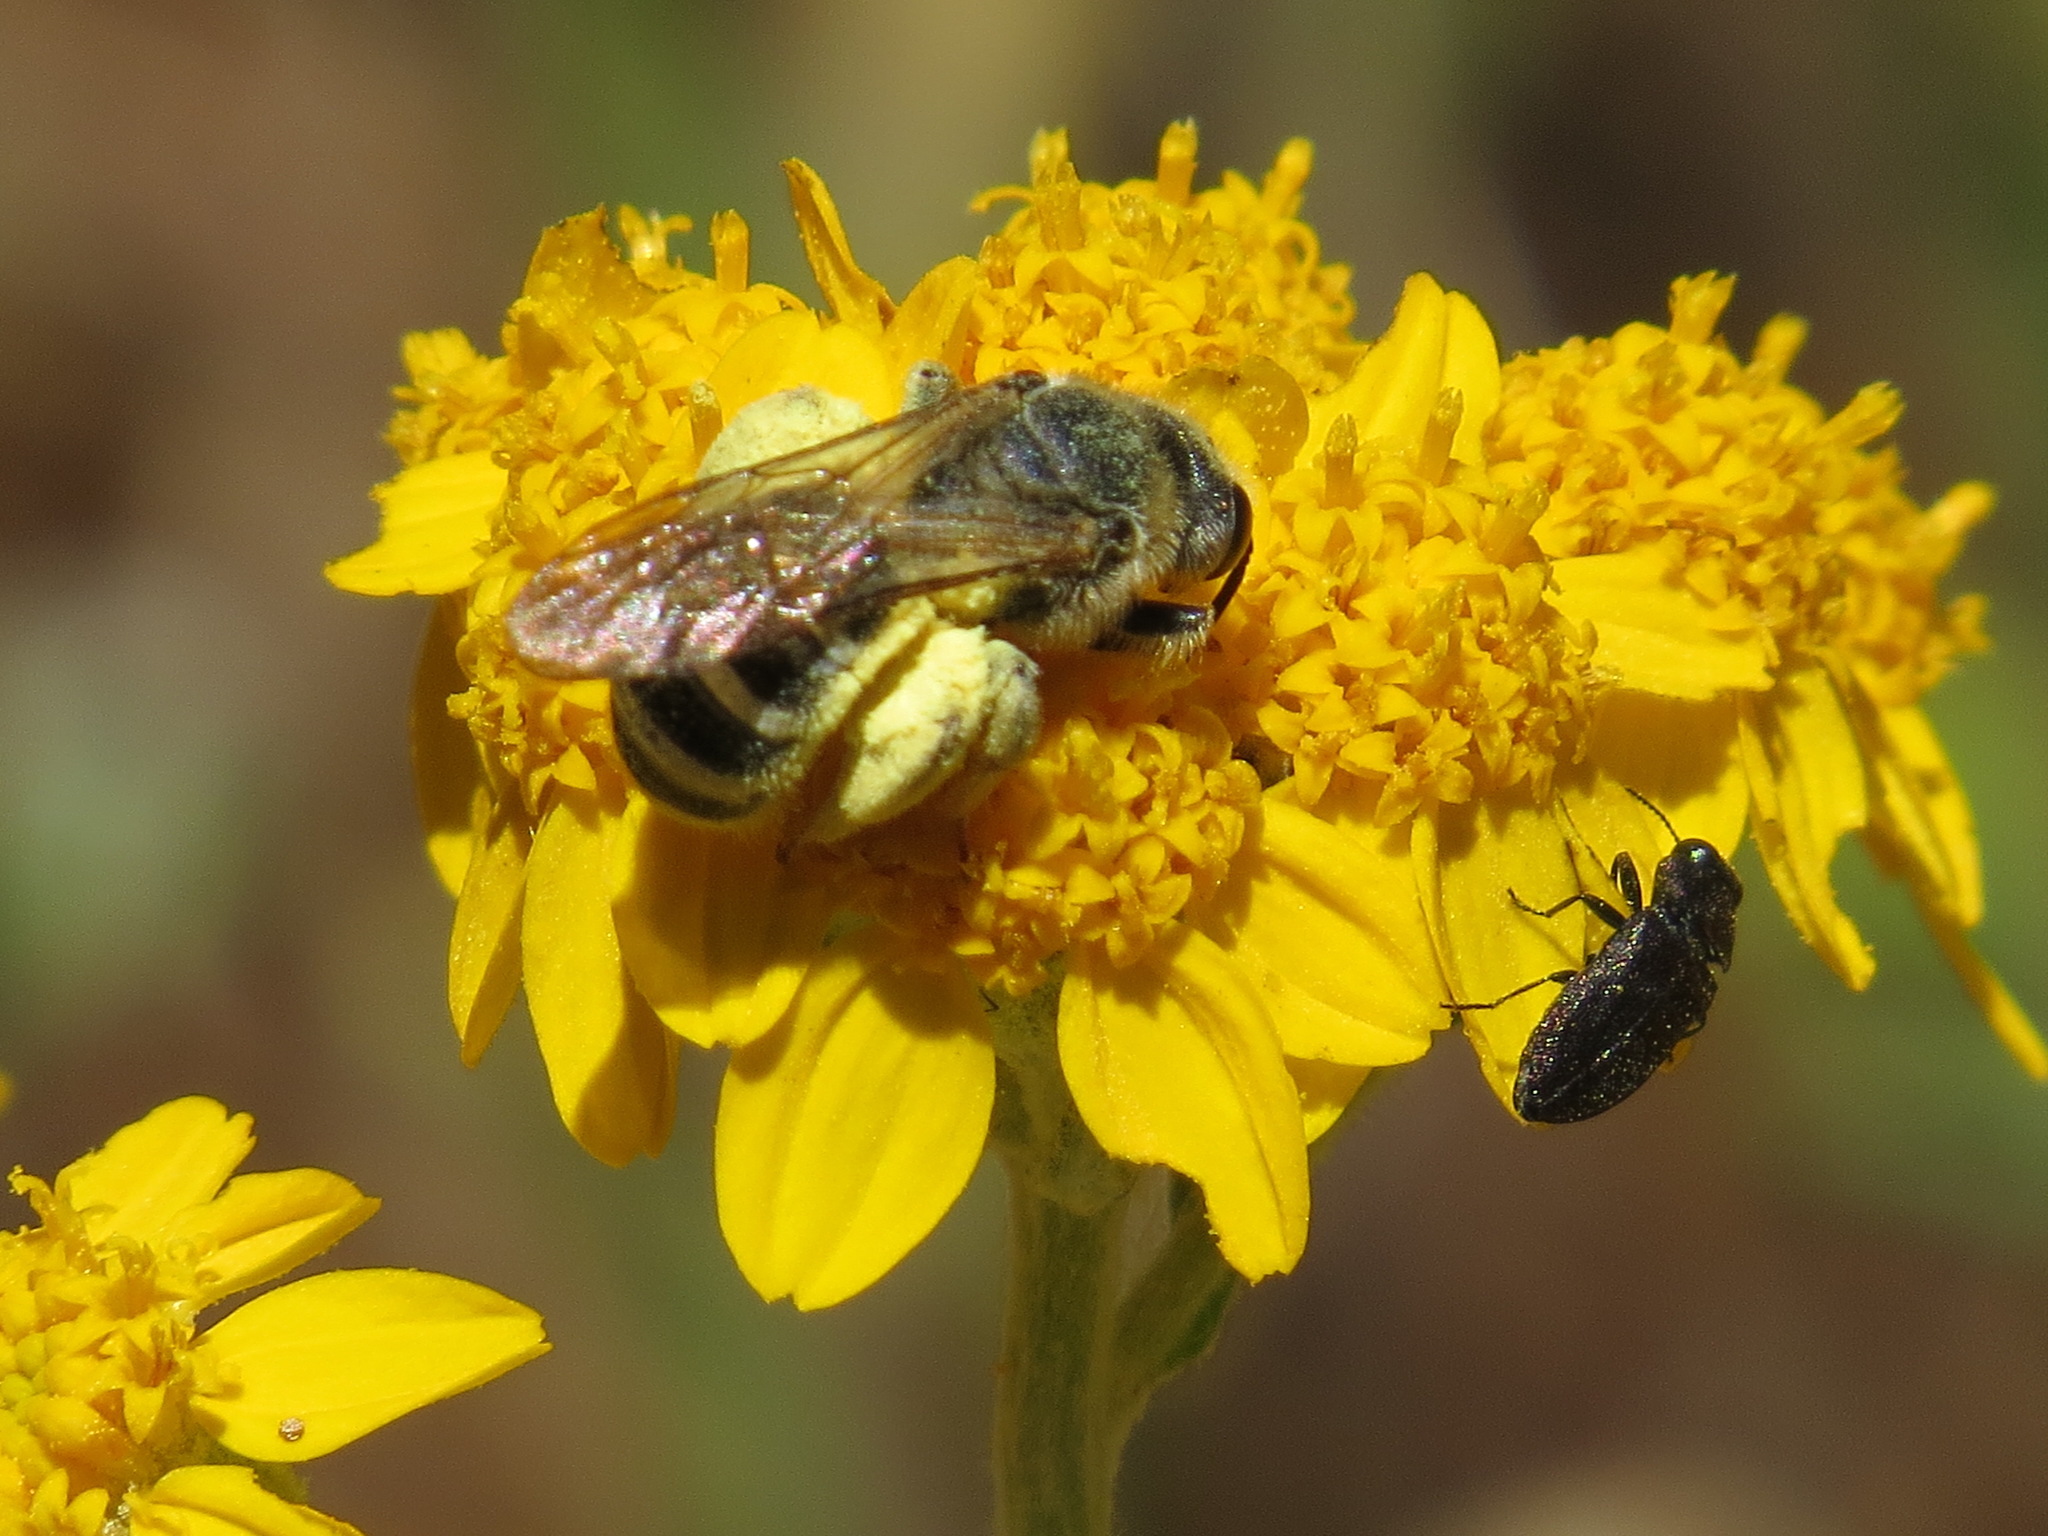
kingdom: Animalia
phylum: Arthropoda
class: Insecta
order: Hymenoptera
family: Halictidae
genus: Halictus
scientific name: Halictus farinosus
